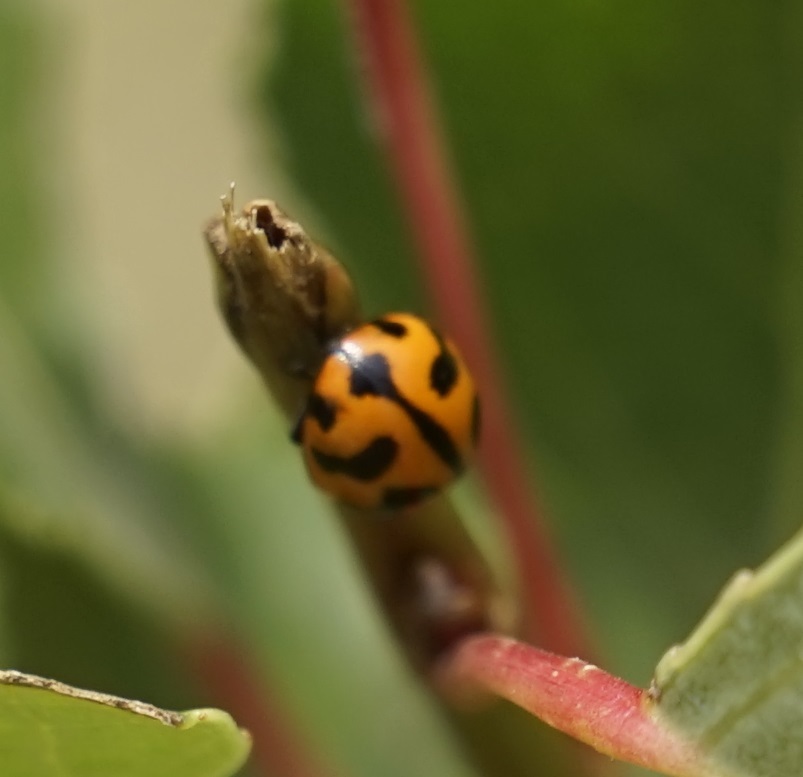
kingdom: Animalia
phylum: Arthropoda
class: Insecta
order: Coleoptera
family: Coccinellidae
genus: Coccinella
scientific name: Coccinella transversalis
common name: Transverse lady beetle
